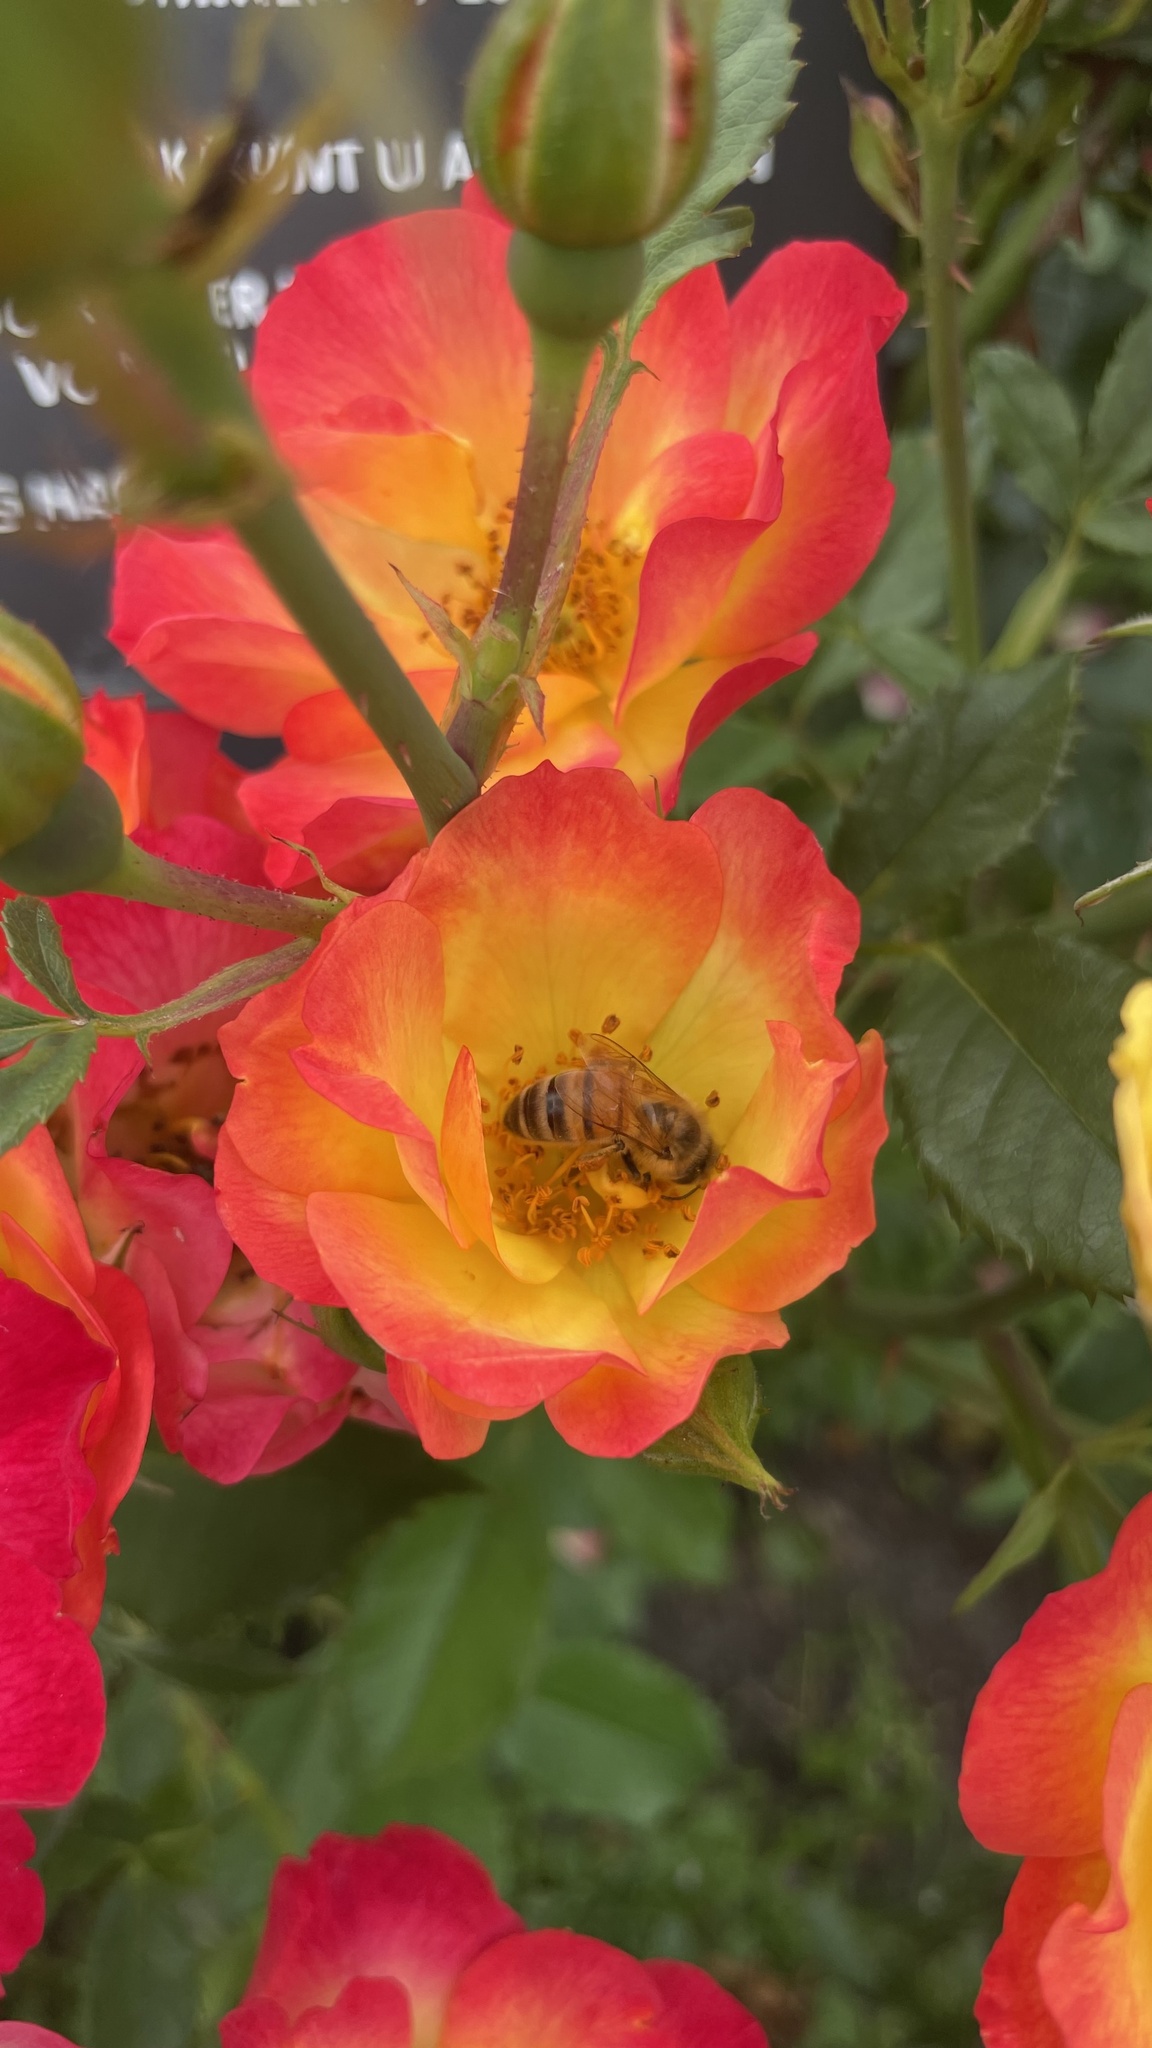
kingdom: Animalia
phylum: Arthropoda
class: Insecta
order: Hymenoptera
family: Apidae
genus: Apis
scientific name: Apis mellifera
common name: Honey bee
